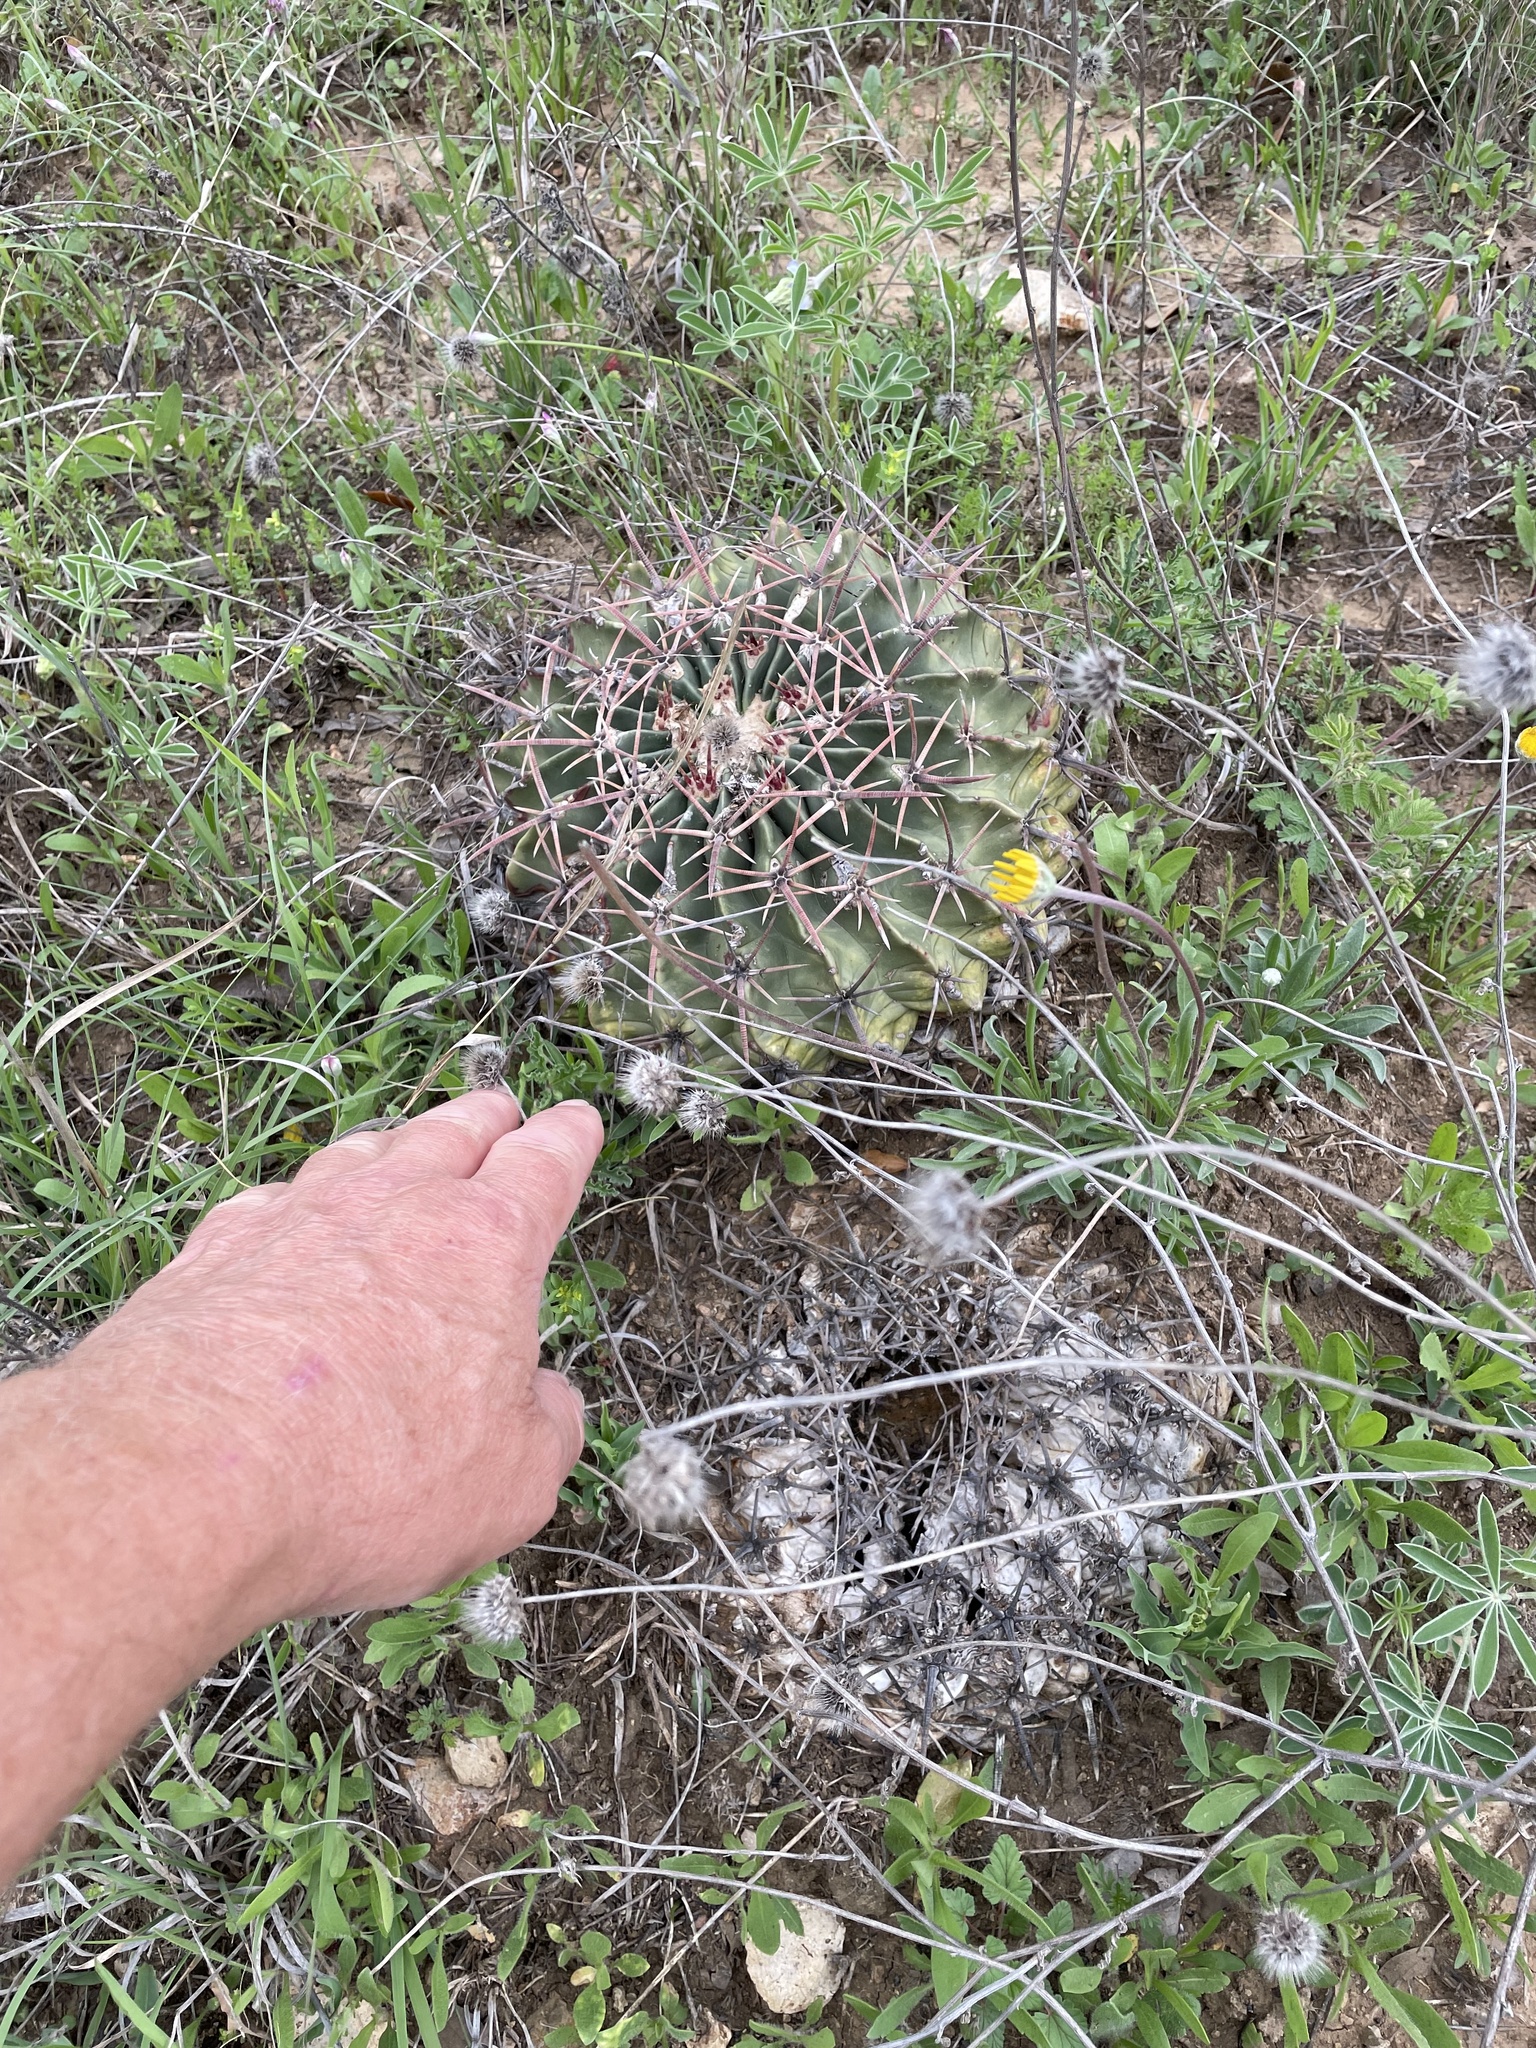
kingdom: Plantae
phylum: Tracheophyta
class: Magnoliopsida
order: Caryophyllales
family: Cactaceae
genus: Echinocactus
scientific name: Echinocactus texensis
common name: Devil's pincushion
